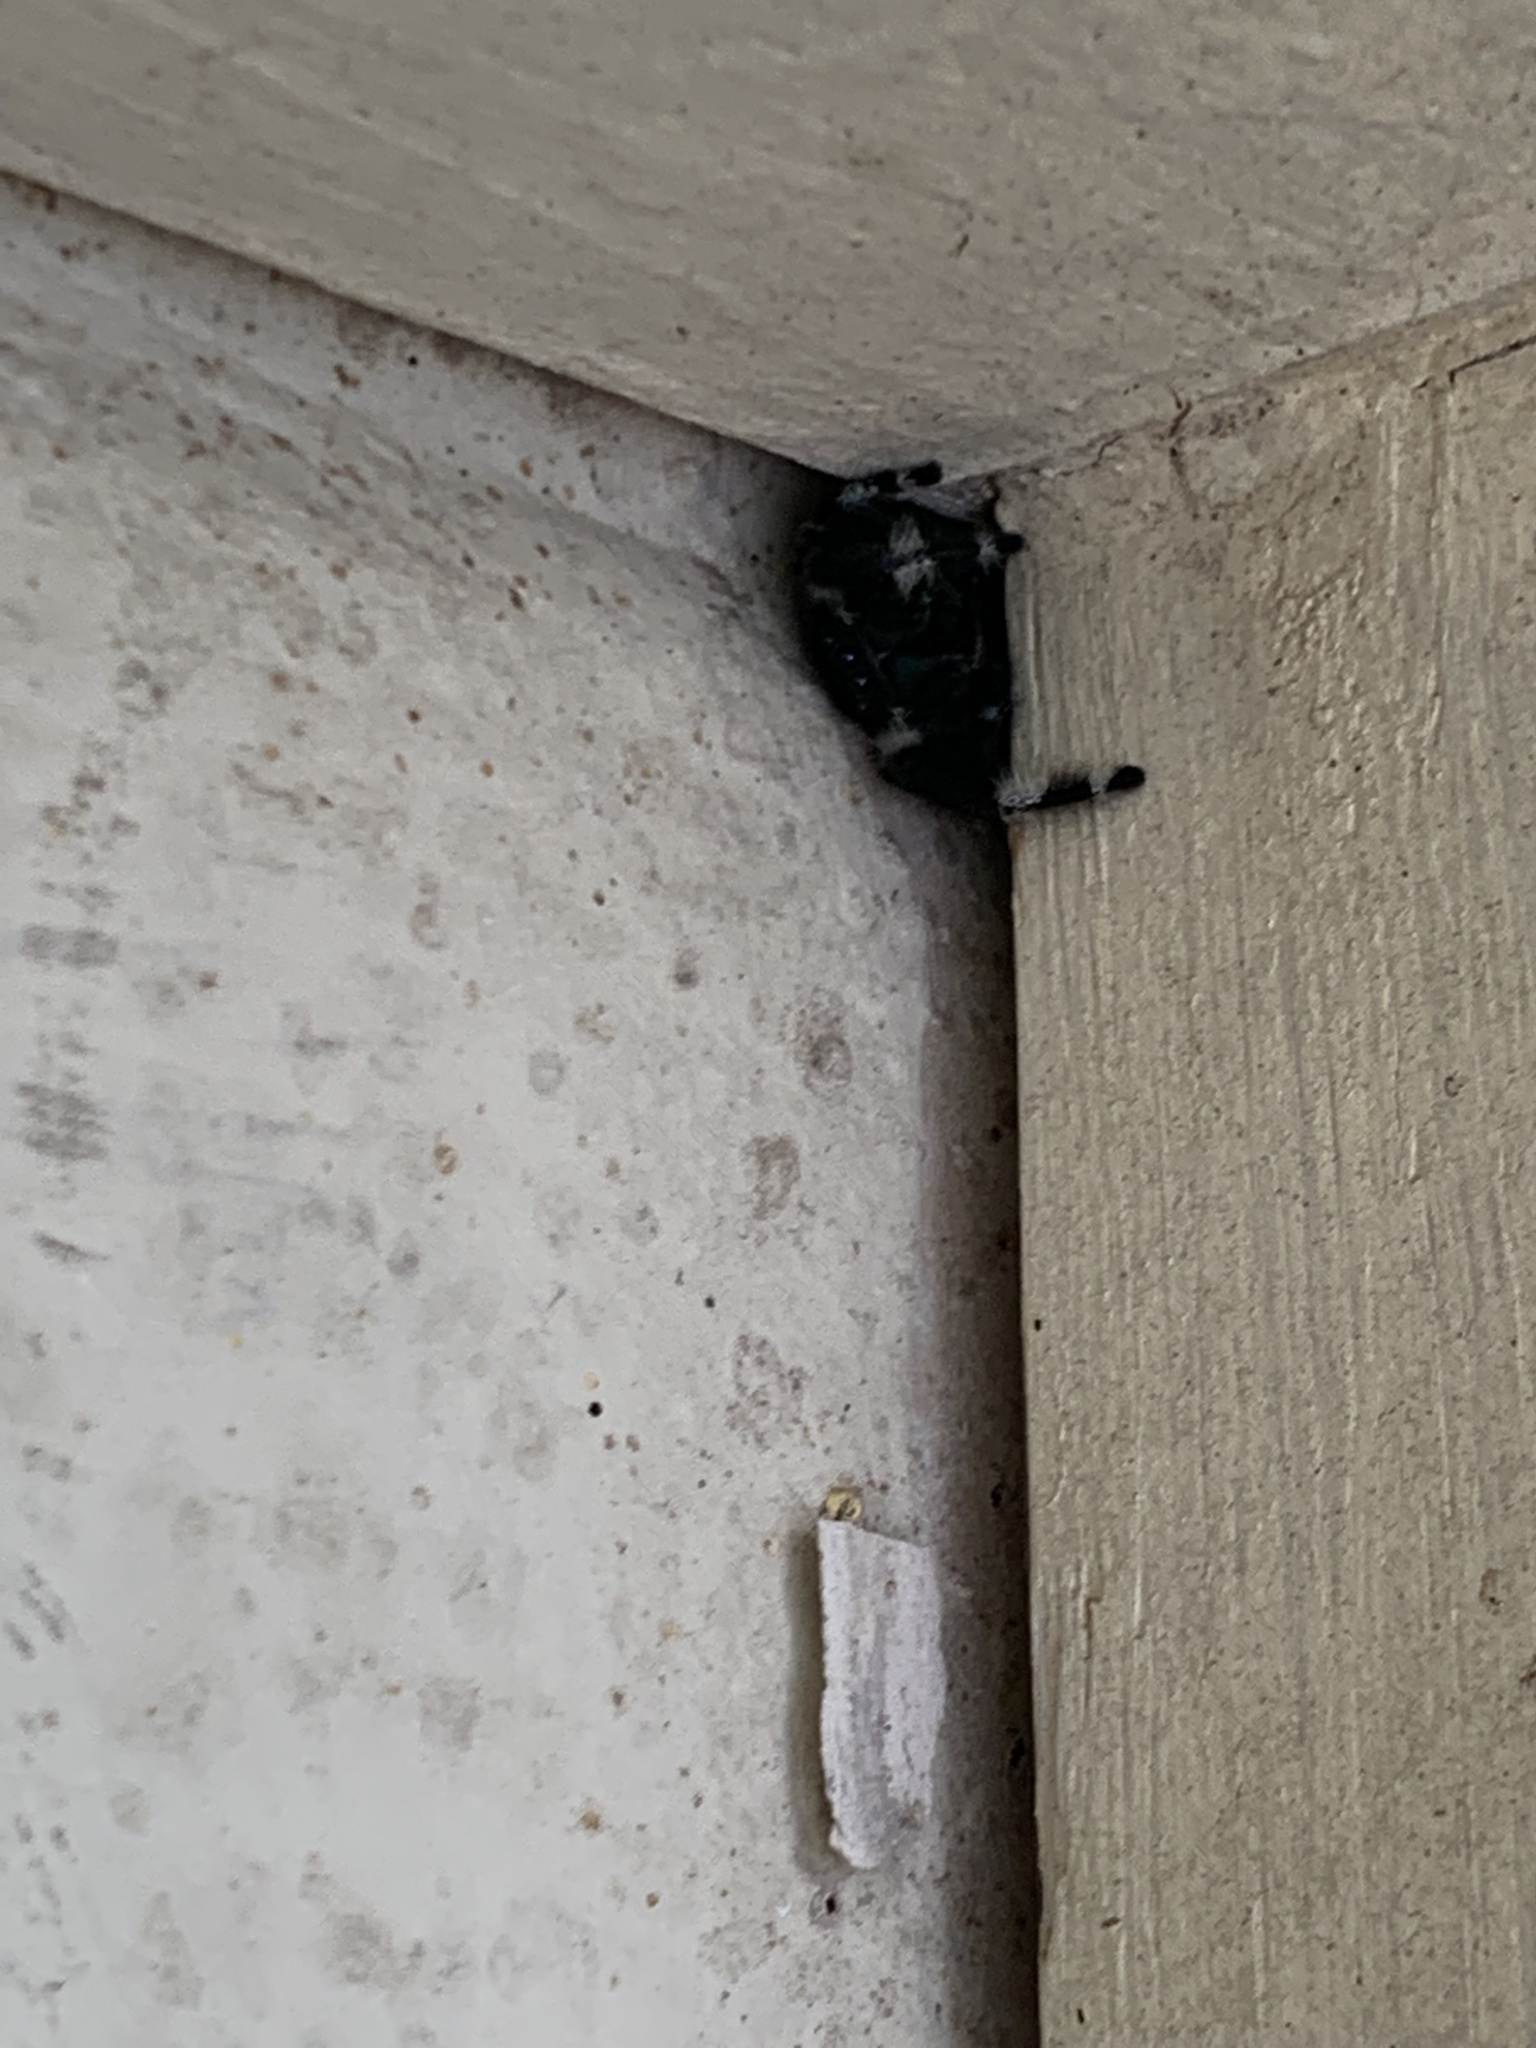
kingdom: Animalia
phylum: Arthropoda
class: Arachnida
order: Araneae
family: Salticidae
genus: Phidippus
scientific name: Phidippus audax
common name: Bold jumper
